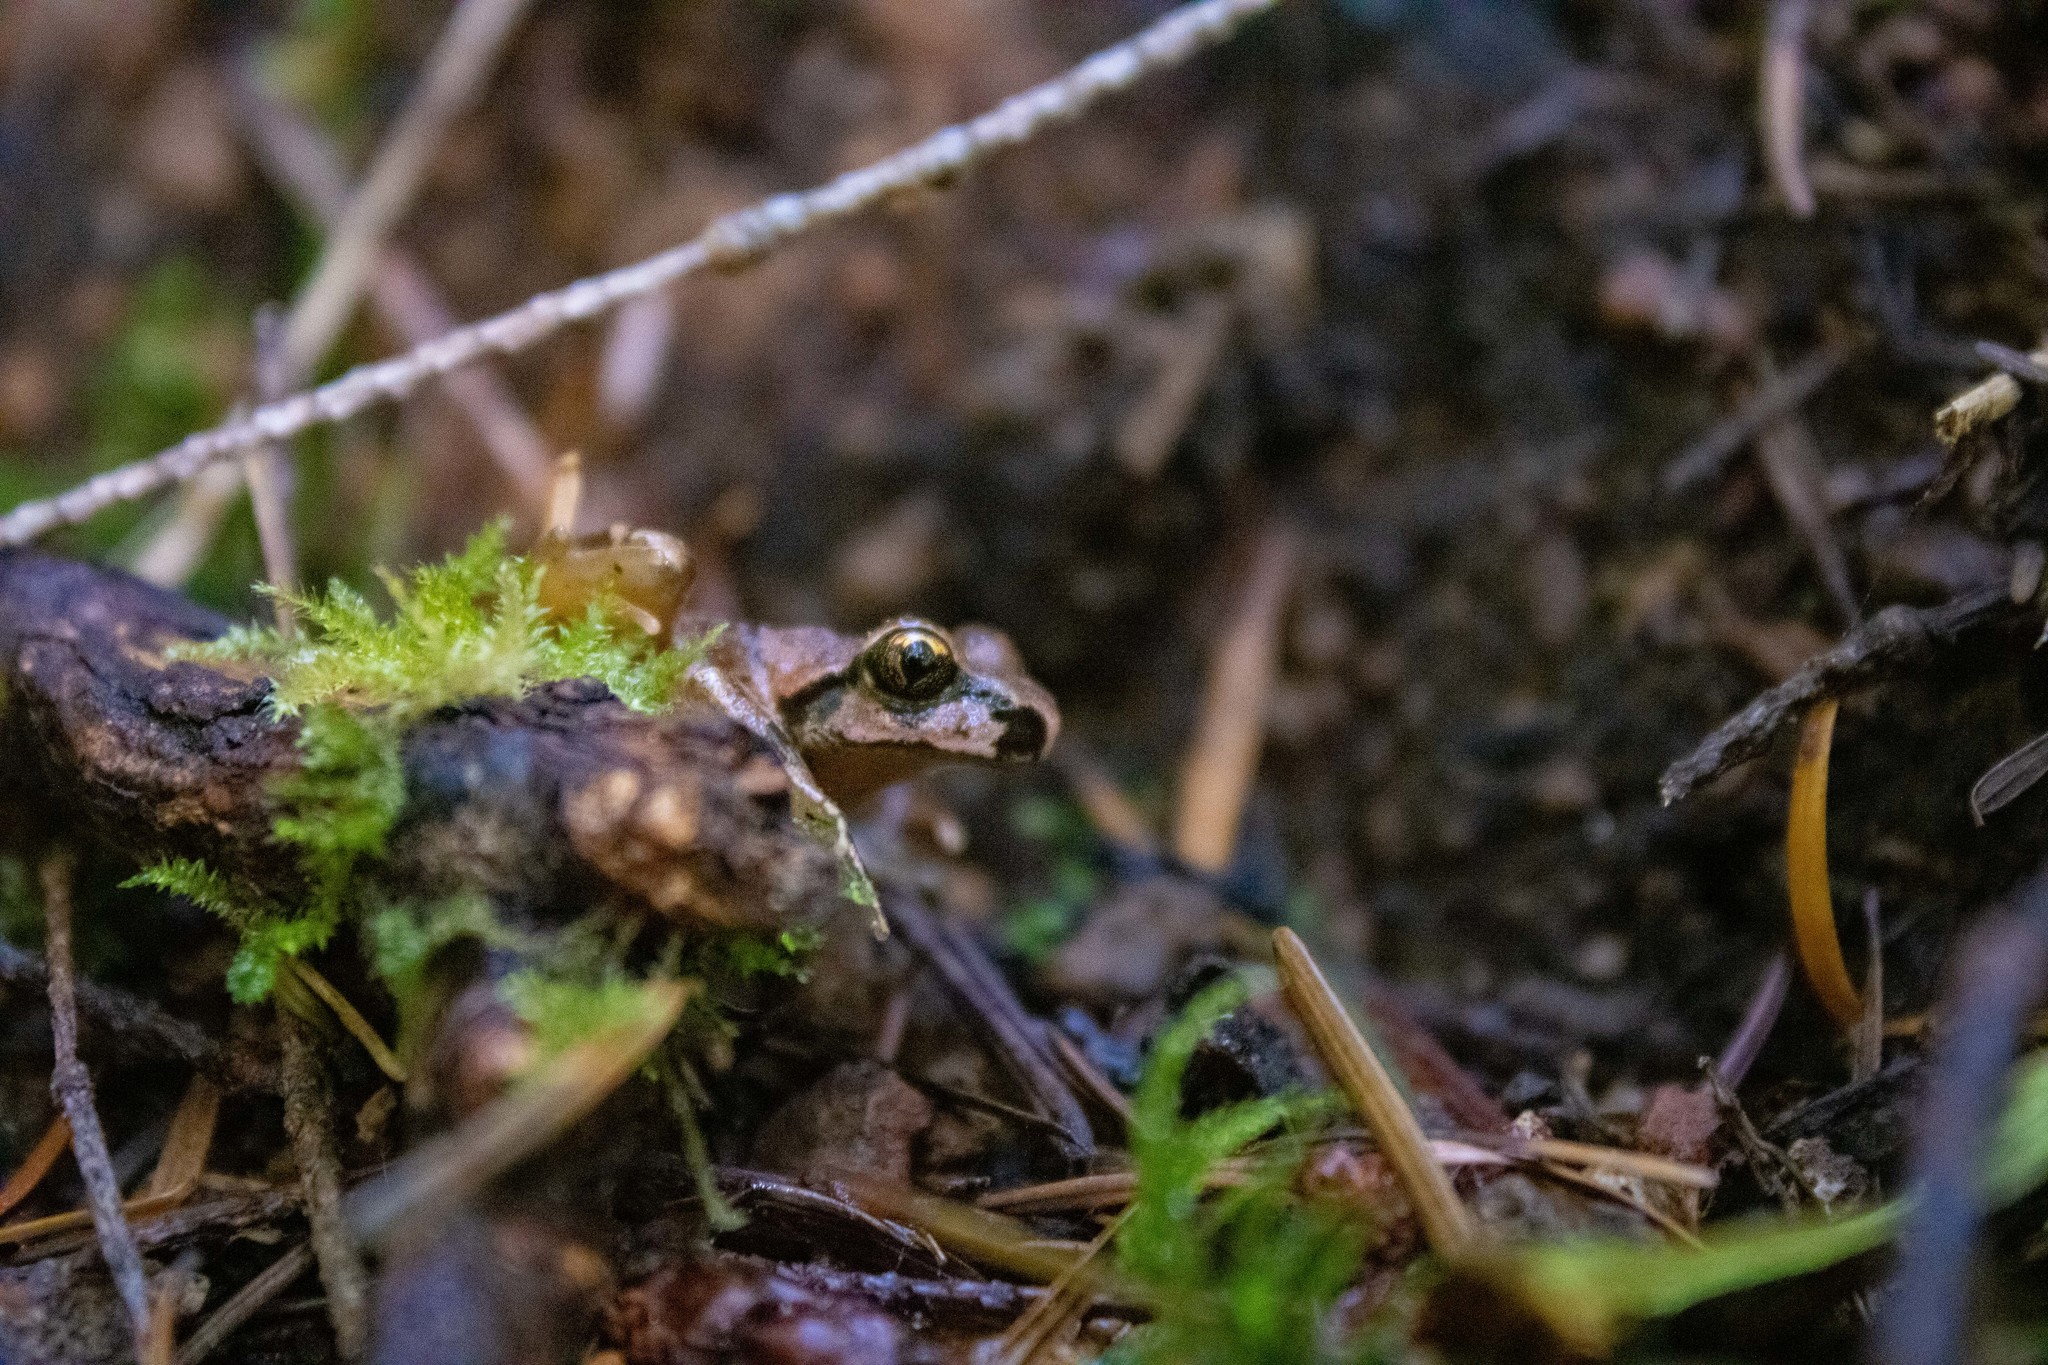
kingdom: Animalia
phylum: Chordata
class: Amphibia
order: Anura
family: Ascaphidae
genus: Ascaphus
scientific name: Ascaphus truei
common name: Tailed frog
